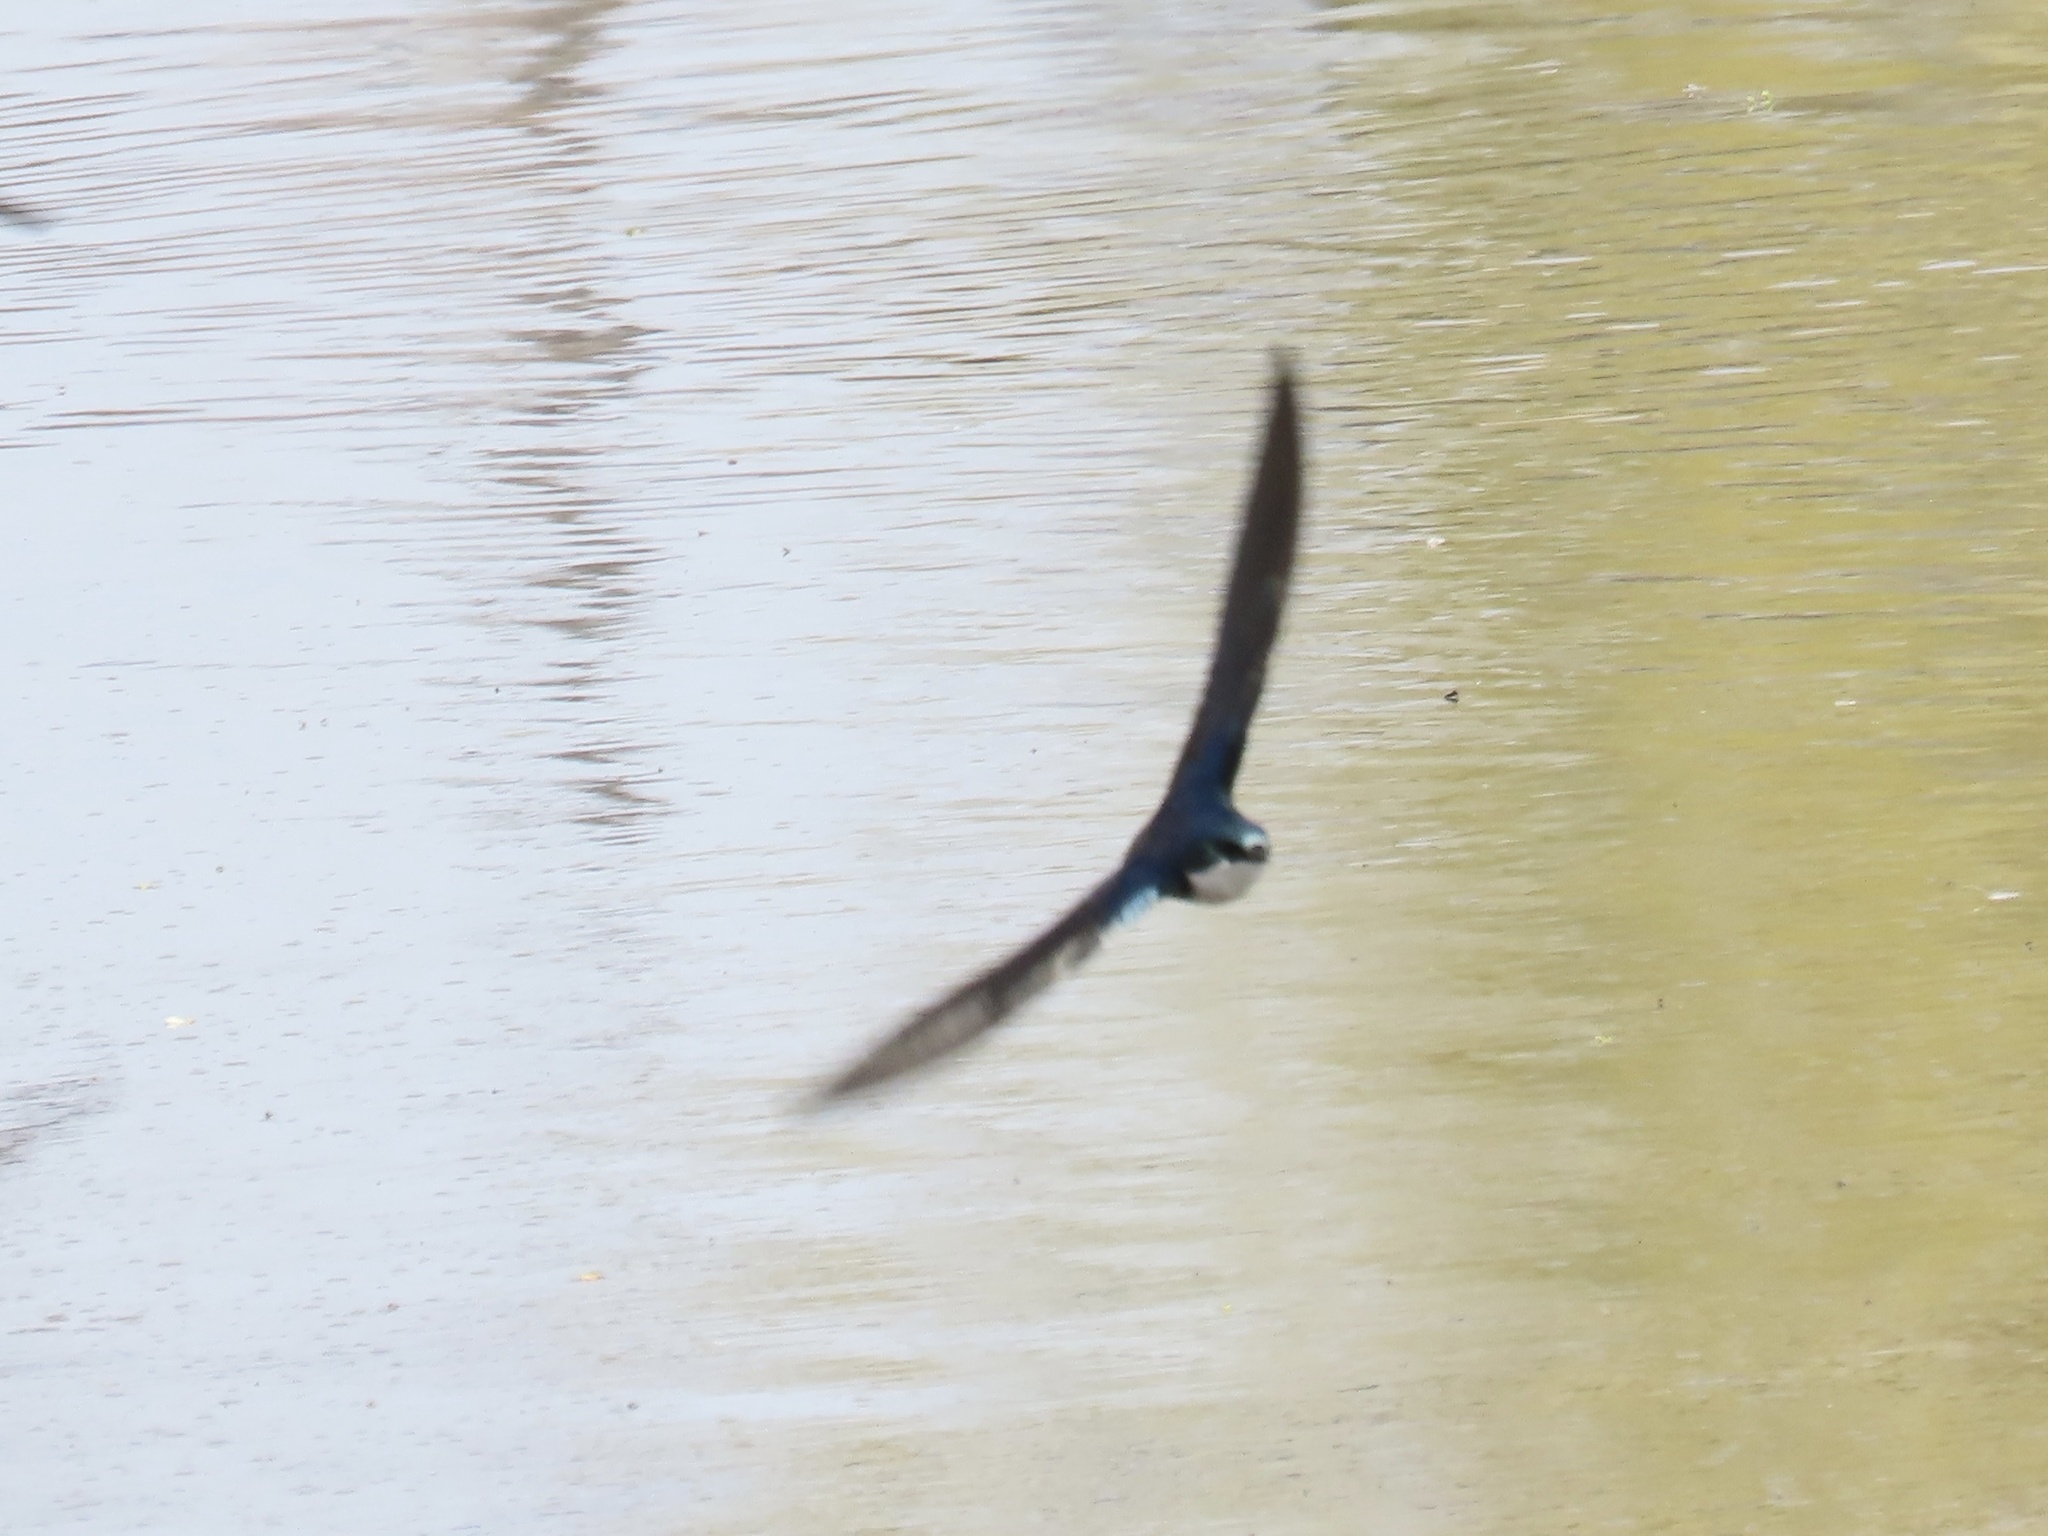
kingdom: Animalia
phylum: Chordata
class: Aves
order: Passeriformes
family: Hirundinidae
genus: Tachycineta
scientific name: Tachycineta bicolor
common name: Tree swallow
